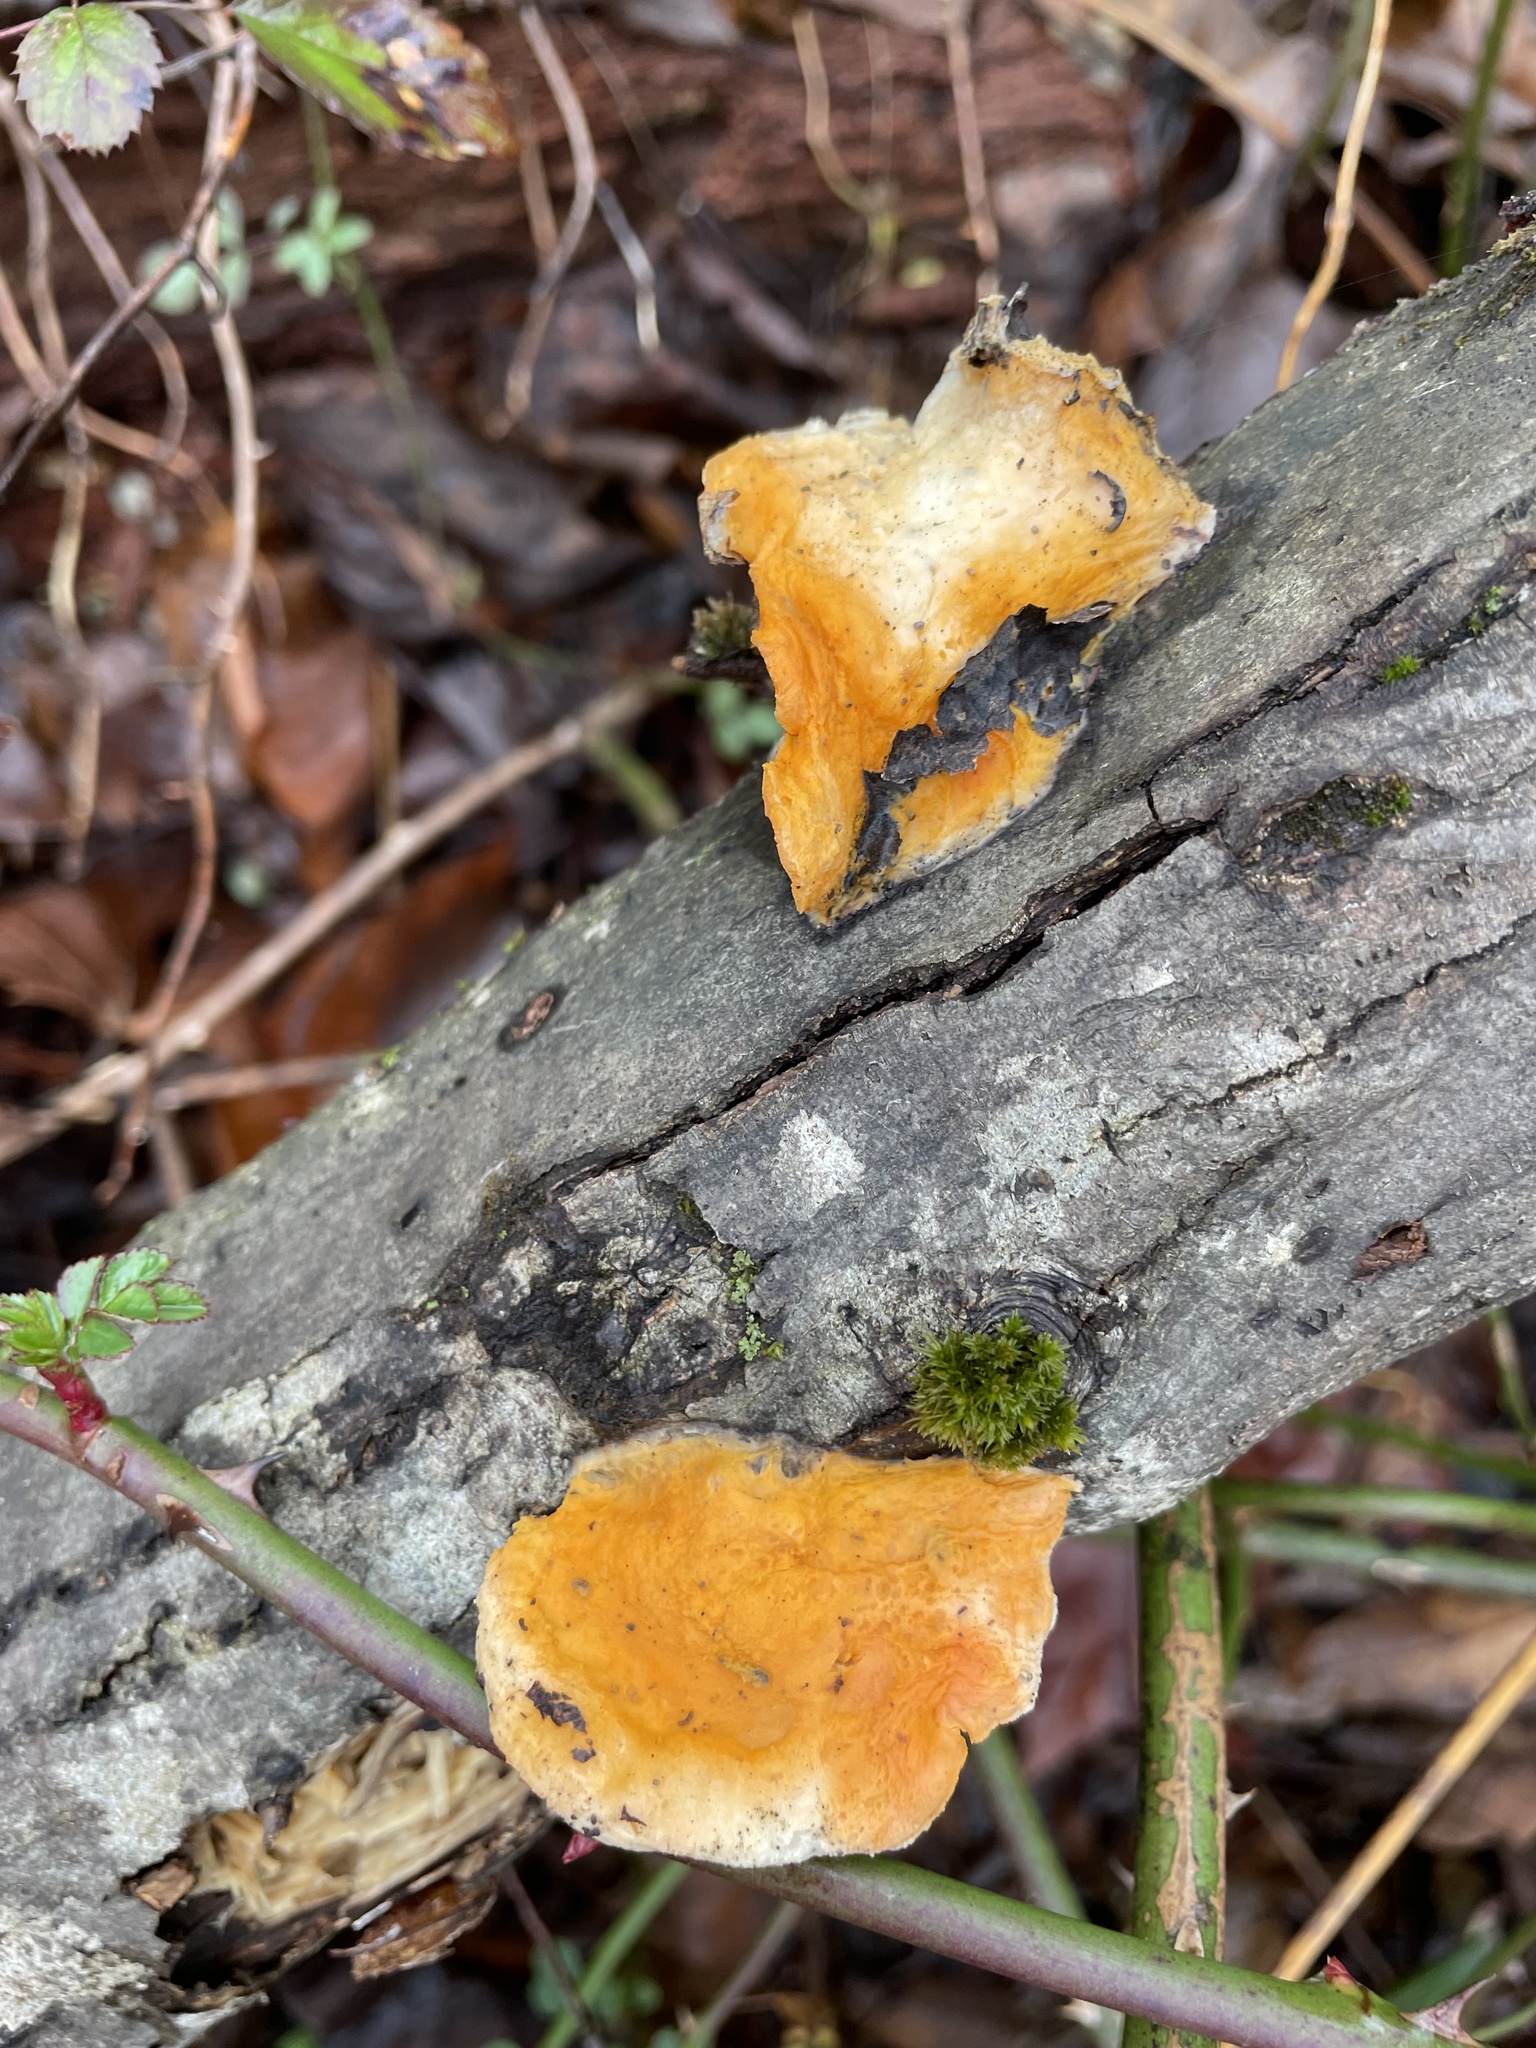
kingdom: Fungi
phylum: Ascomycota
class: Sordariomycetes
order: Hypocreales
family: Hypocreaceae
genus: Protocrea
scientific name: Protocrea pallida
